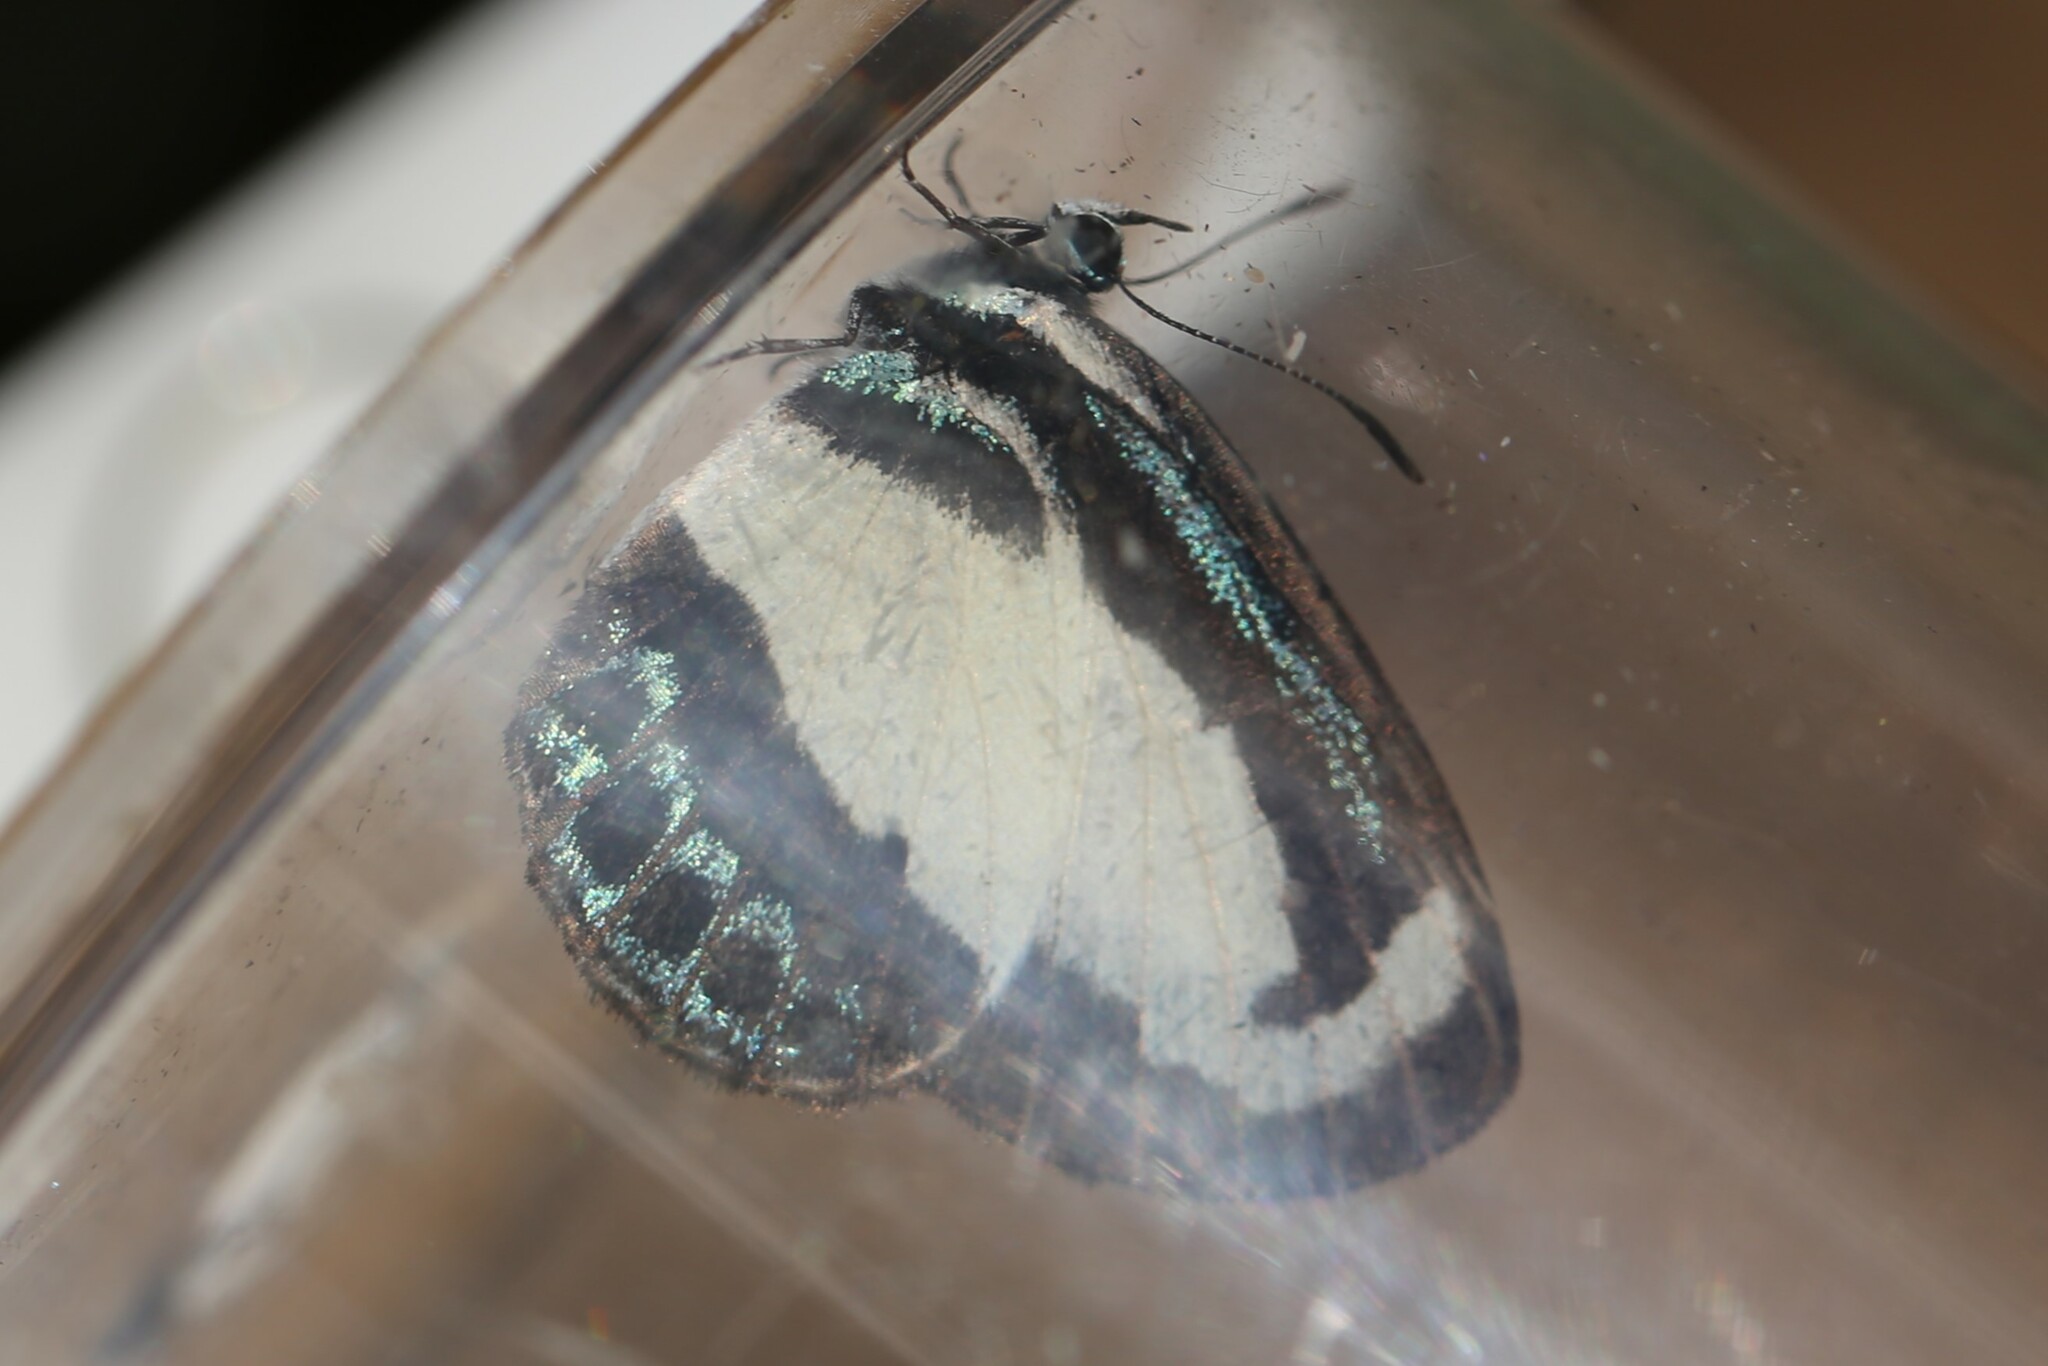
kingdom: Animalia
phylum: Arthropoda
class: Insecta
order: Lepidoptera
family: Lycaenidae
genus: Psychonotis
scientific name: Psychonotis caelius
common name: Small green banded blue
